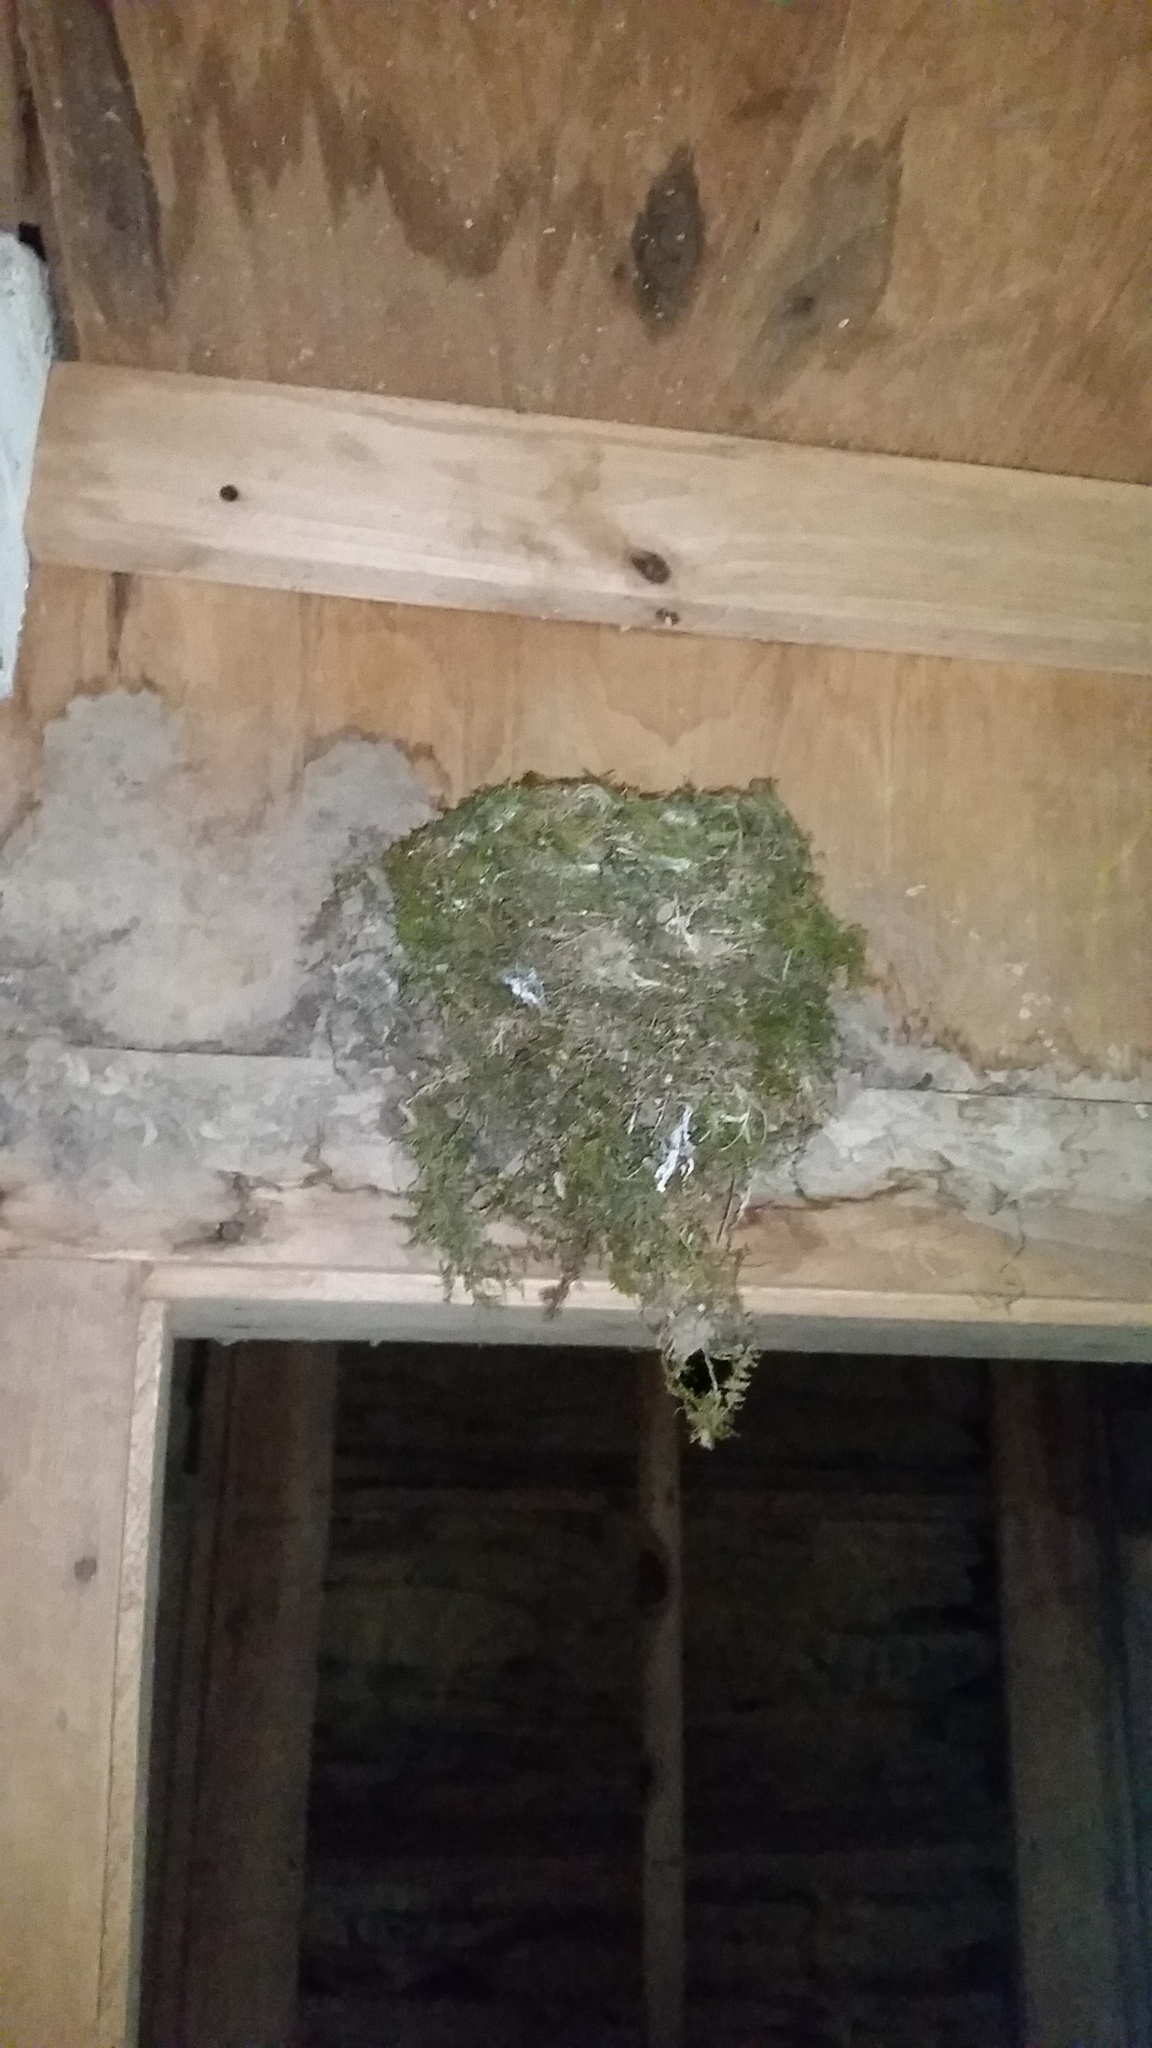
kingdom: Animalia
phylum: Chordata
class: Aves
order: Passeriformes
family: Tyrannidae
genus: Sayornis
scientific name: Sayornis phoebe
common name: Eastern phoebe
